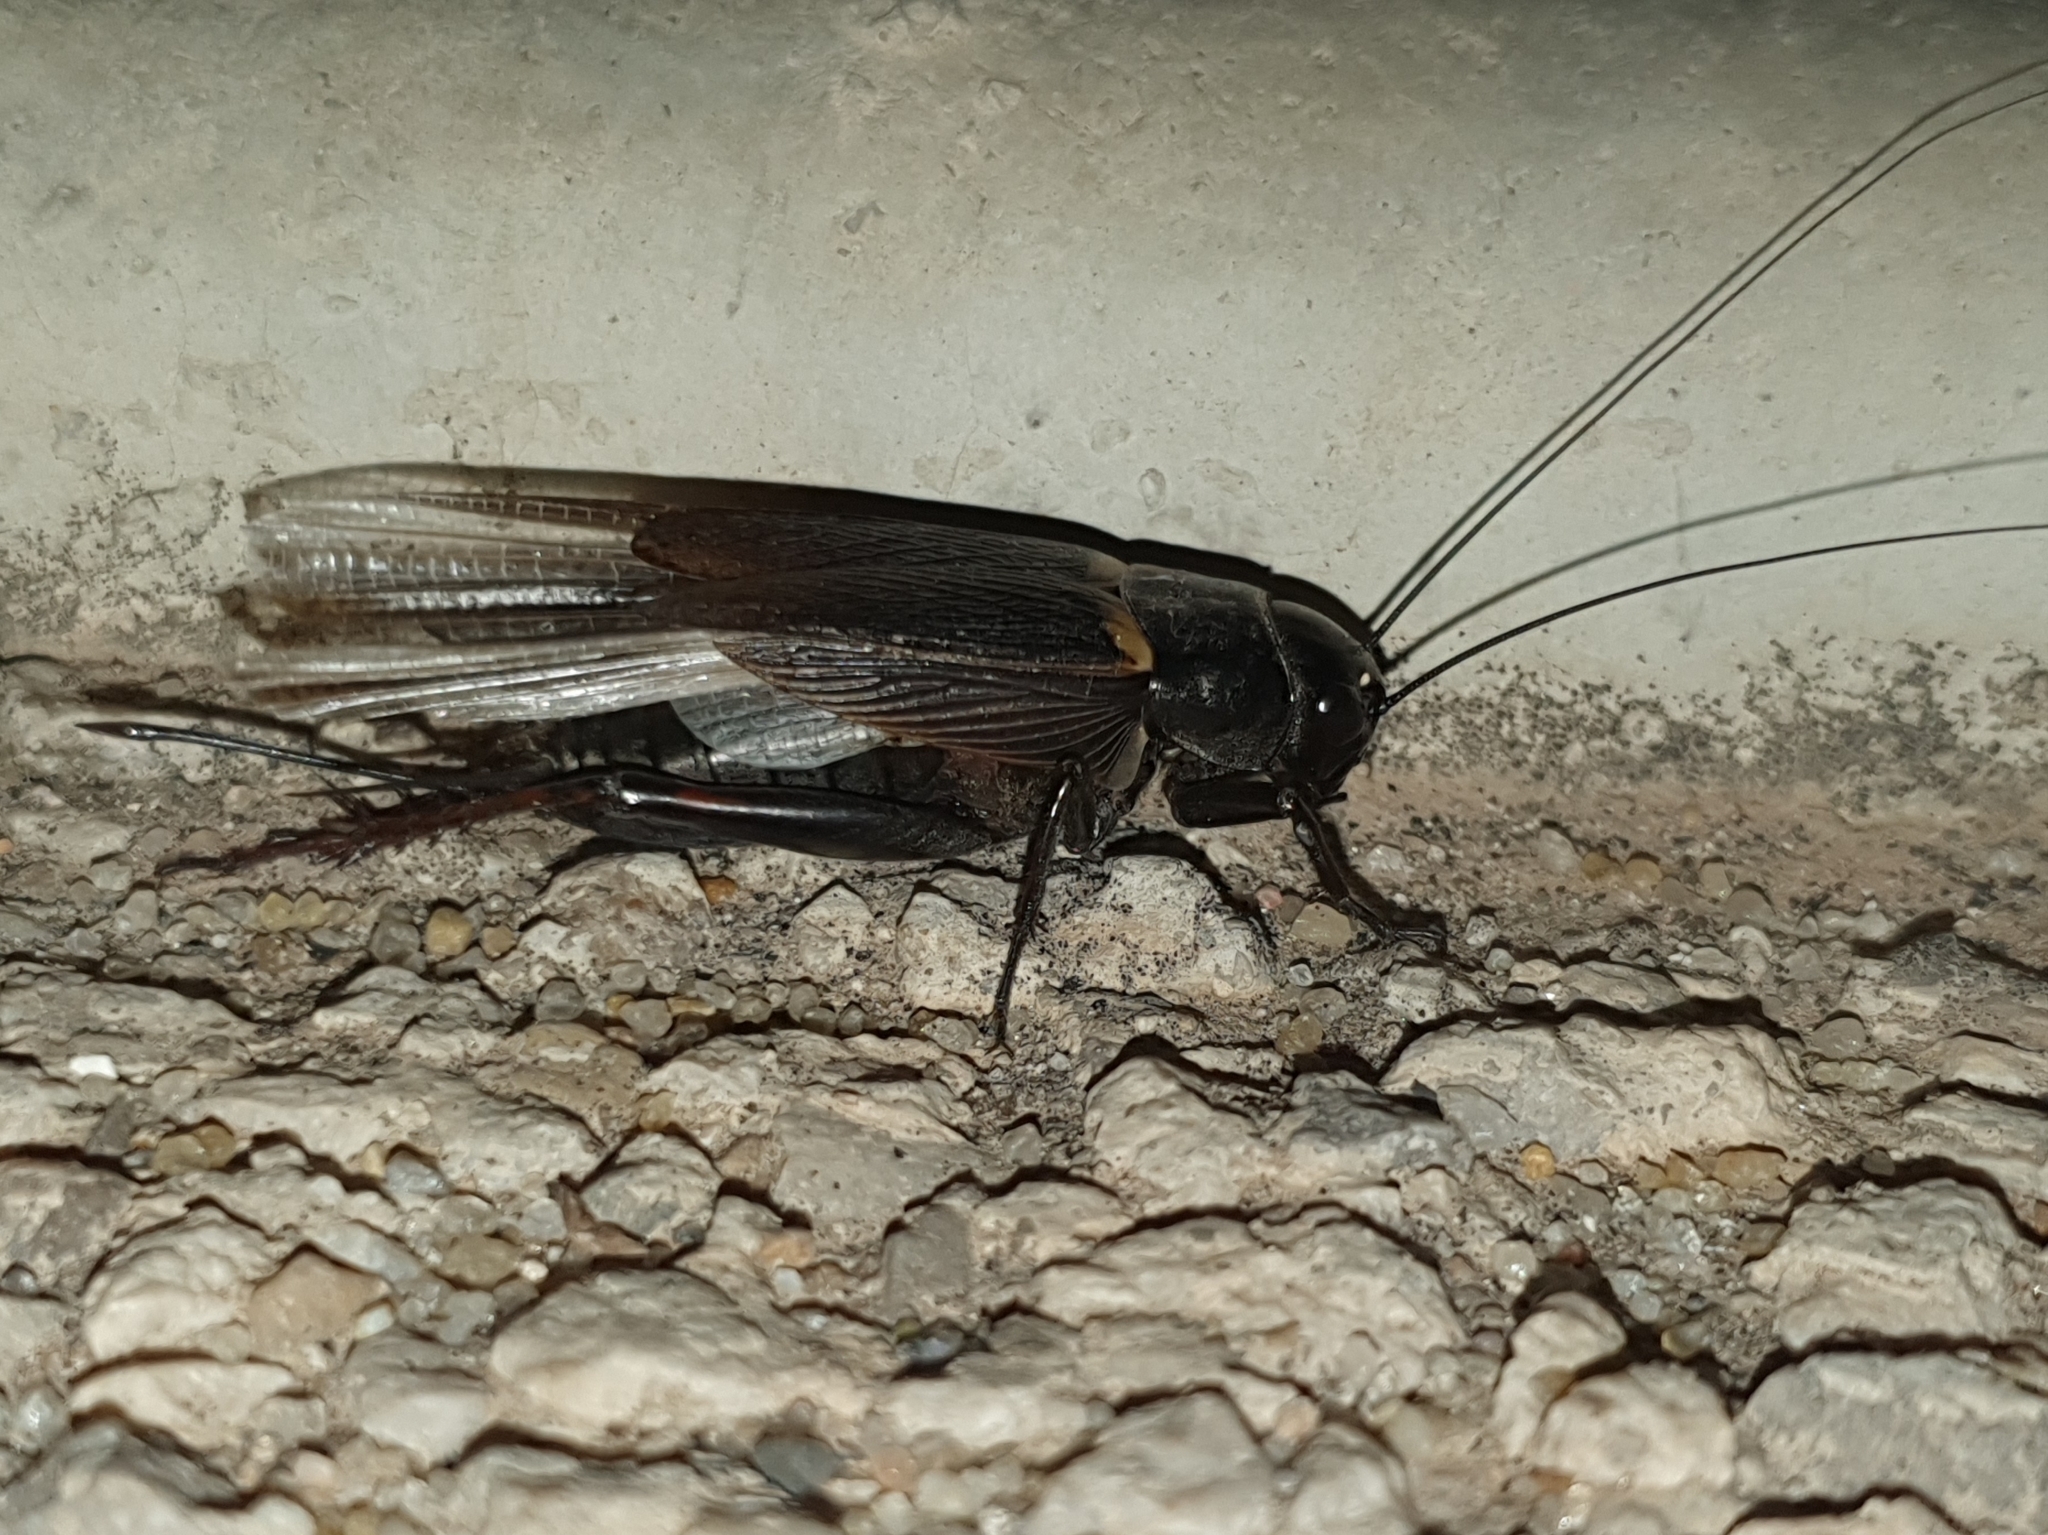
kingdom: Animalia
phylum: Arthropoda
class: Insecta
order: Orthoptera
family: Gryllidae
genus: Gryllus
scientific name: Gryllus bimaculatus
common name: Two-spotted cricket
